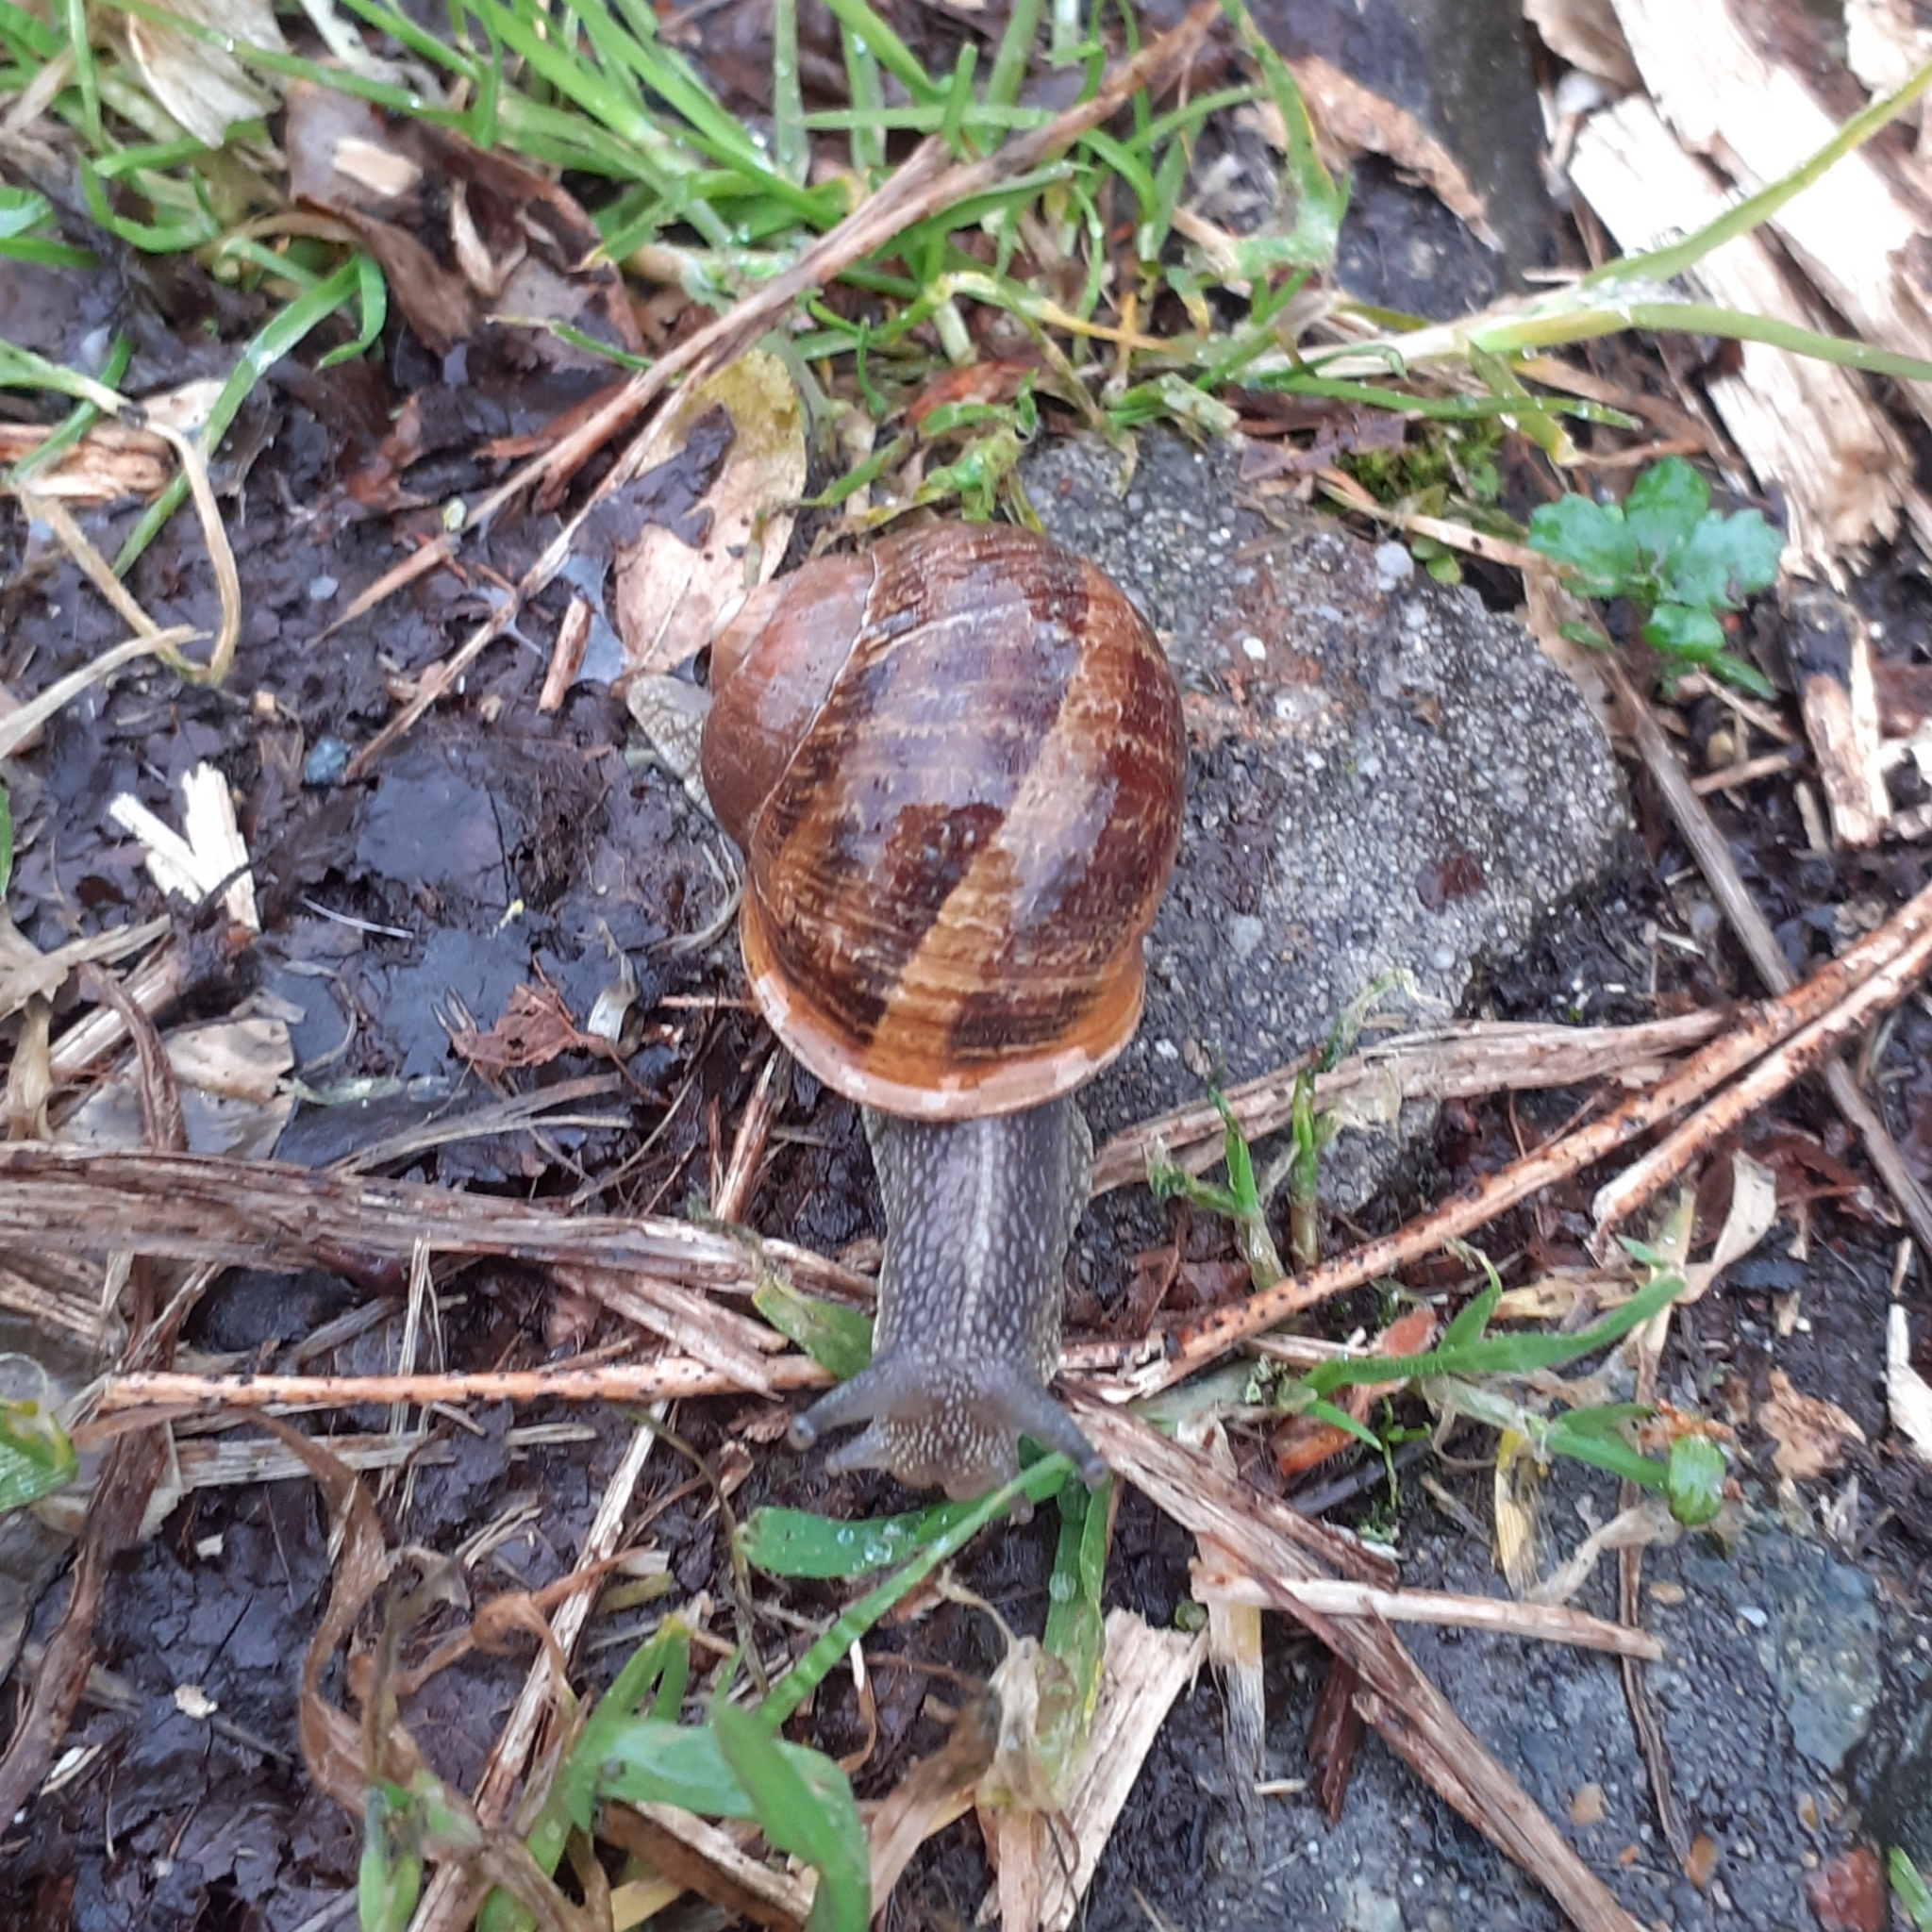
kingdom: Animalia
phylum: Mollusca
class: Gastropoda
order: Stylommatophora
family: Helicidae
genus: Cornu
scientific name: Cornu aspersum
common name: Brown garden snail
